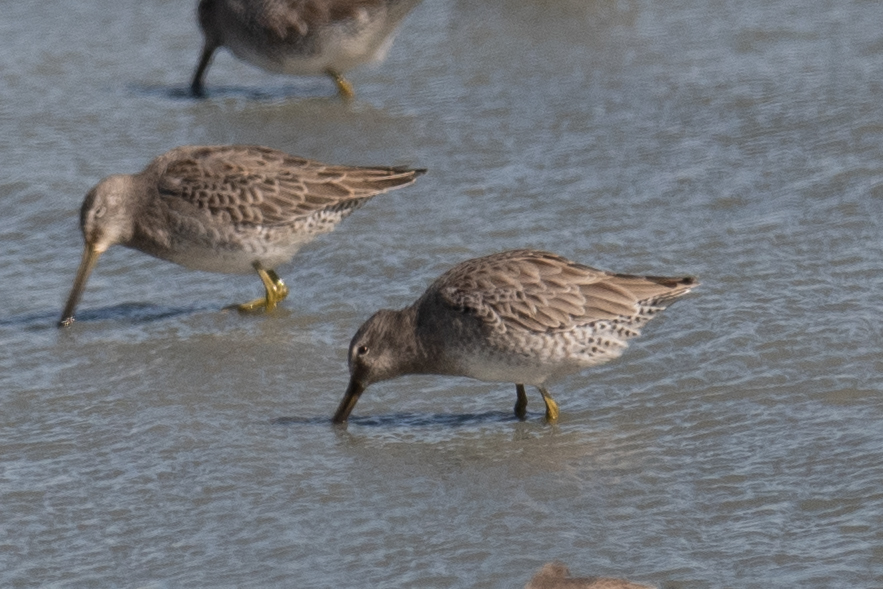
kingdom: Animalia
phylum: Chordata
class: Aves
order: Charadriiformes
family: Scolopacidae
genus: Limnodromus
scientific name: Limnodromus scolopaceus
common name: Long-billed dowitcher
